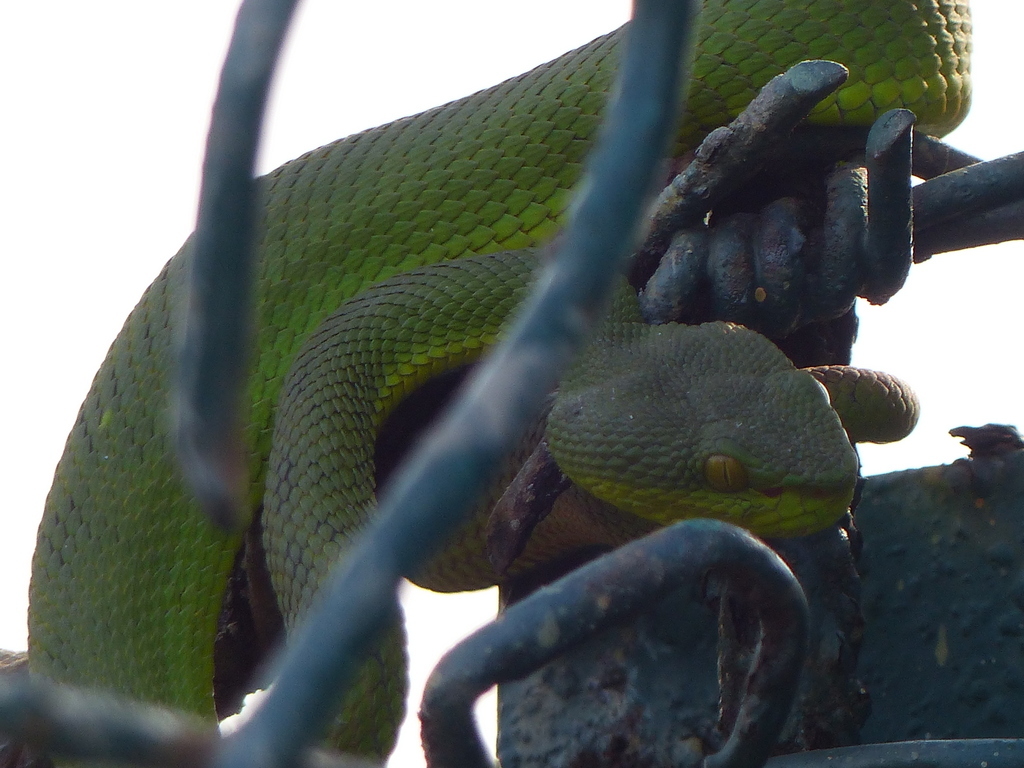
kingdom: Animalia
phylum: Chordata
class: Squamata
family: Viperidae
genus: Trimeresurus
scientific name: Trimeresurus erythrurus
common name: Redtail (bamboo) pit viper
